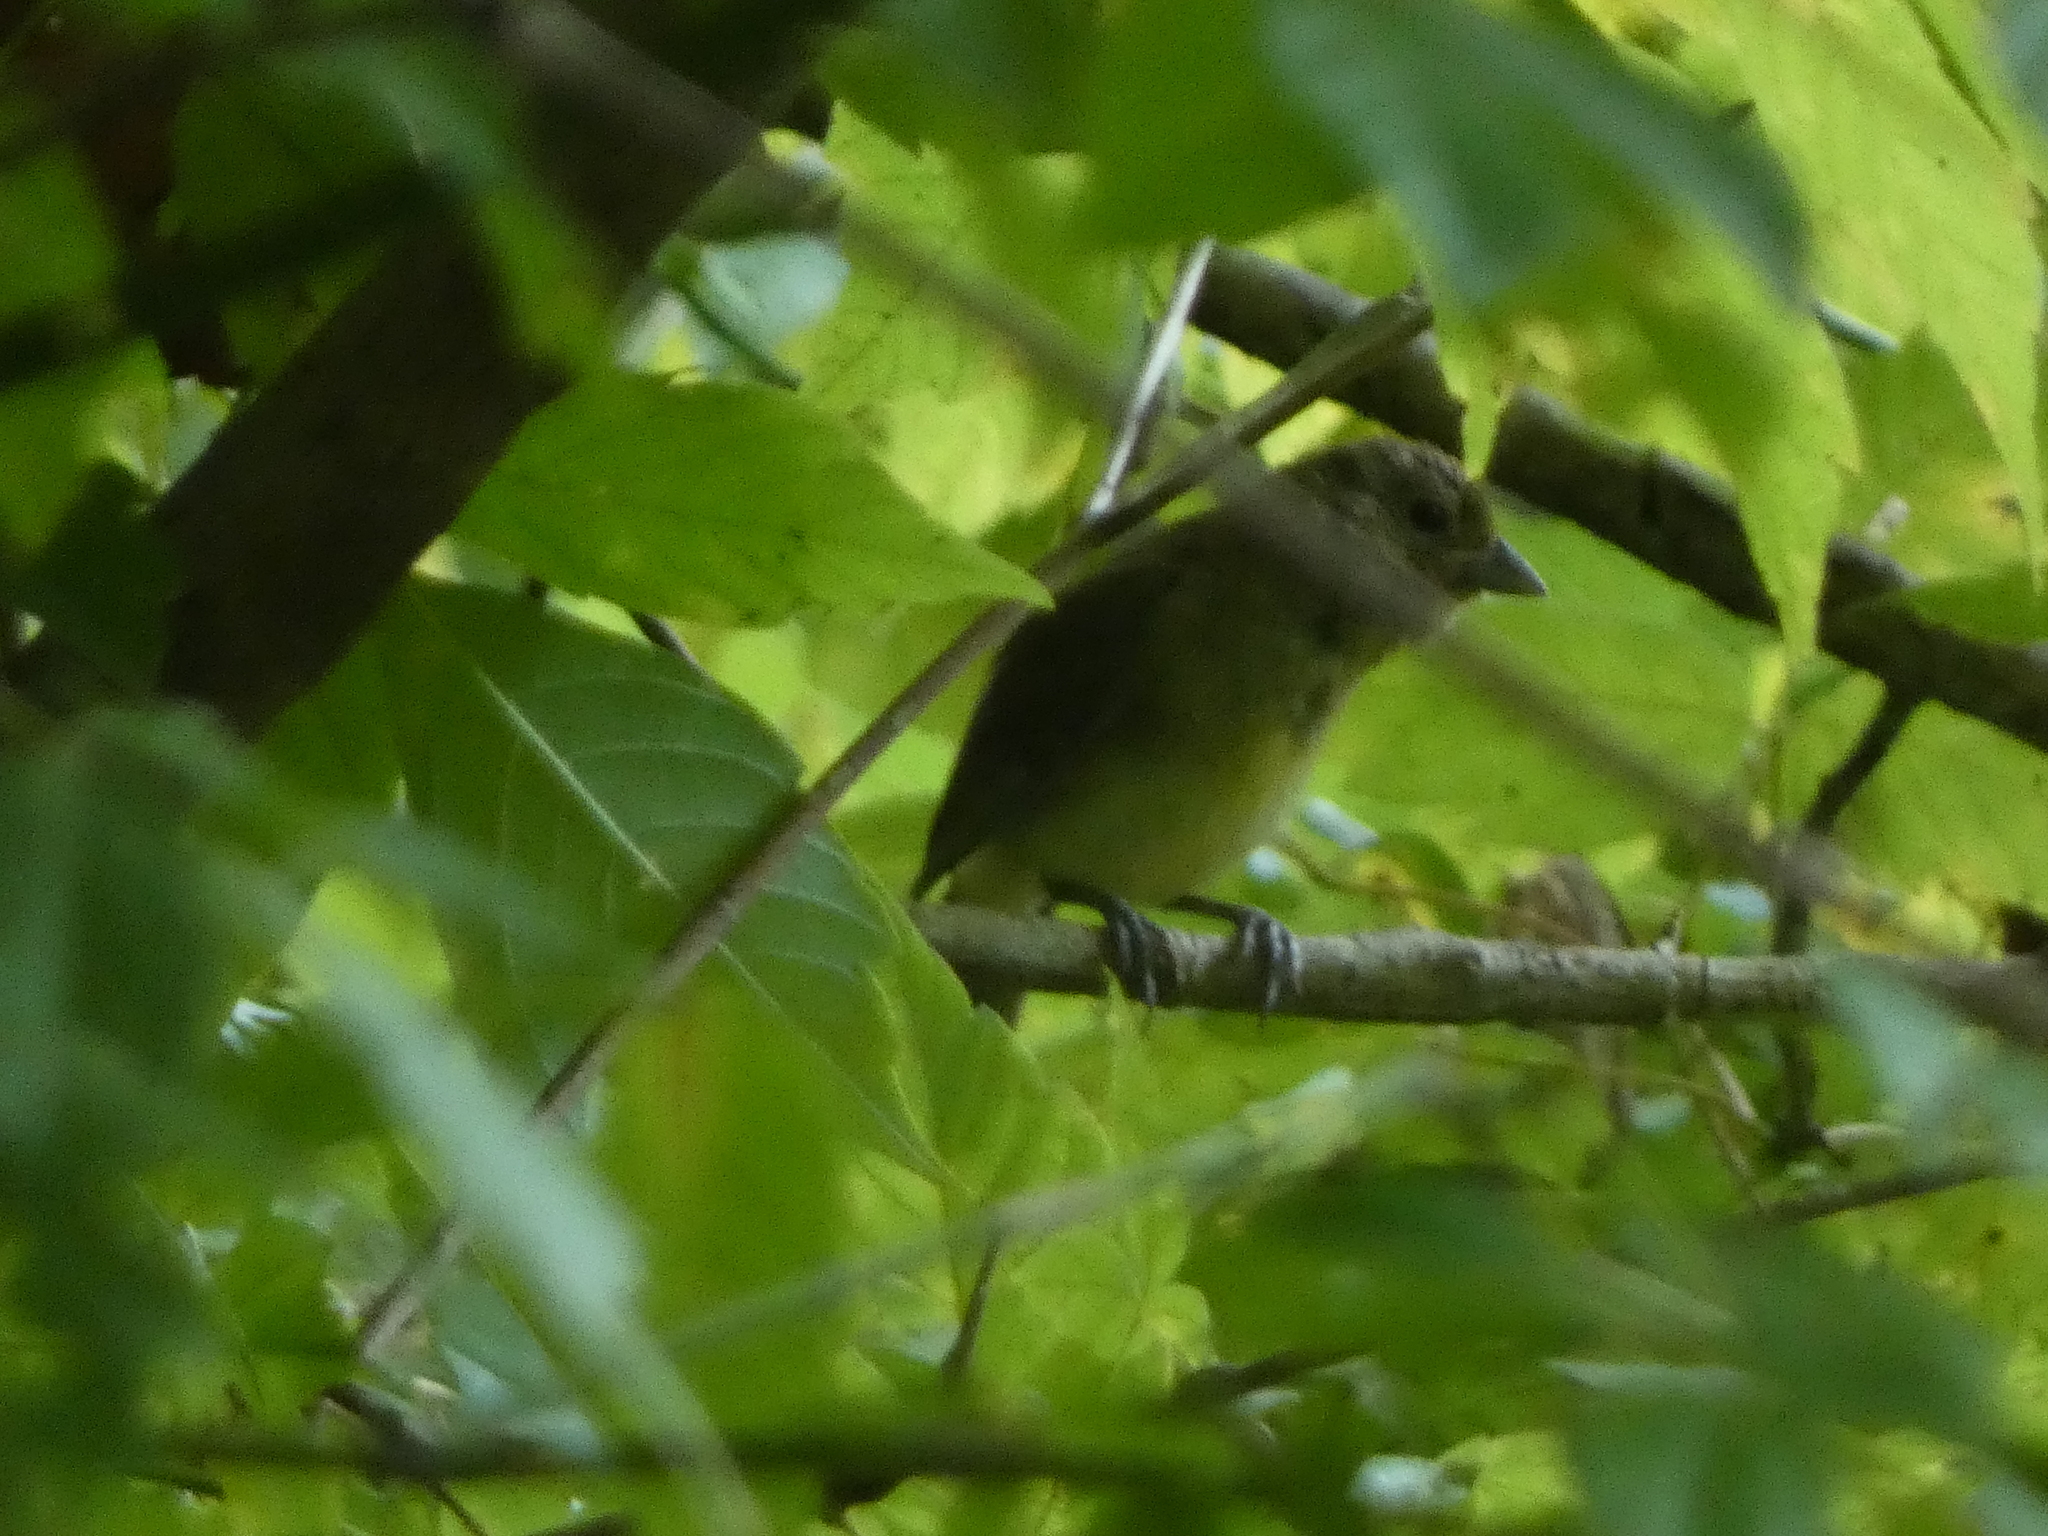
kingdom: Animalia
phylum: Chordata
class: Aves
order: Passeriformes
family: Cardinalidae
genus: Passerina
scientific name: Passerina ciris
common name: Painted bunting
